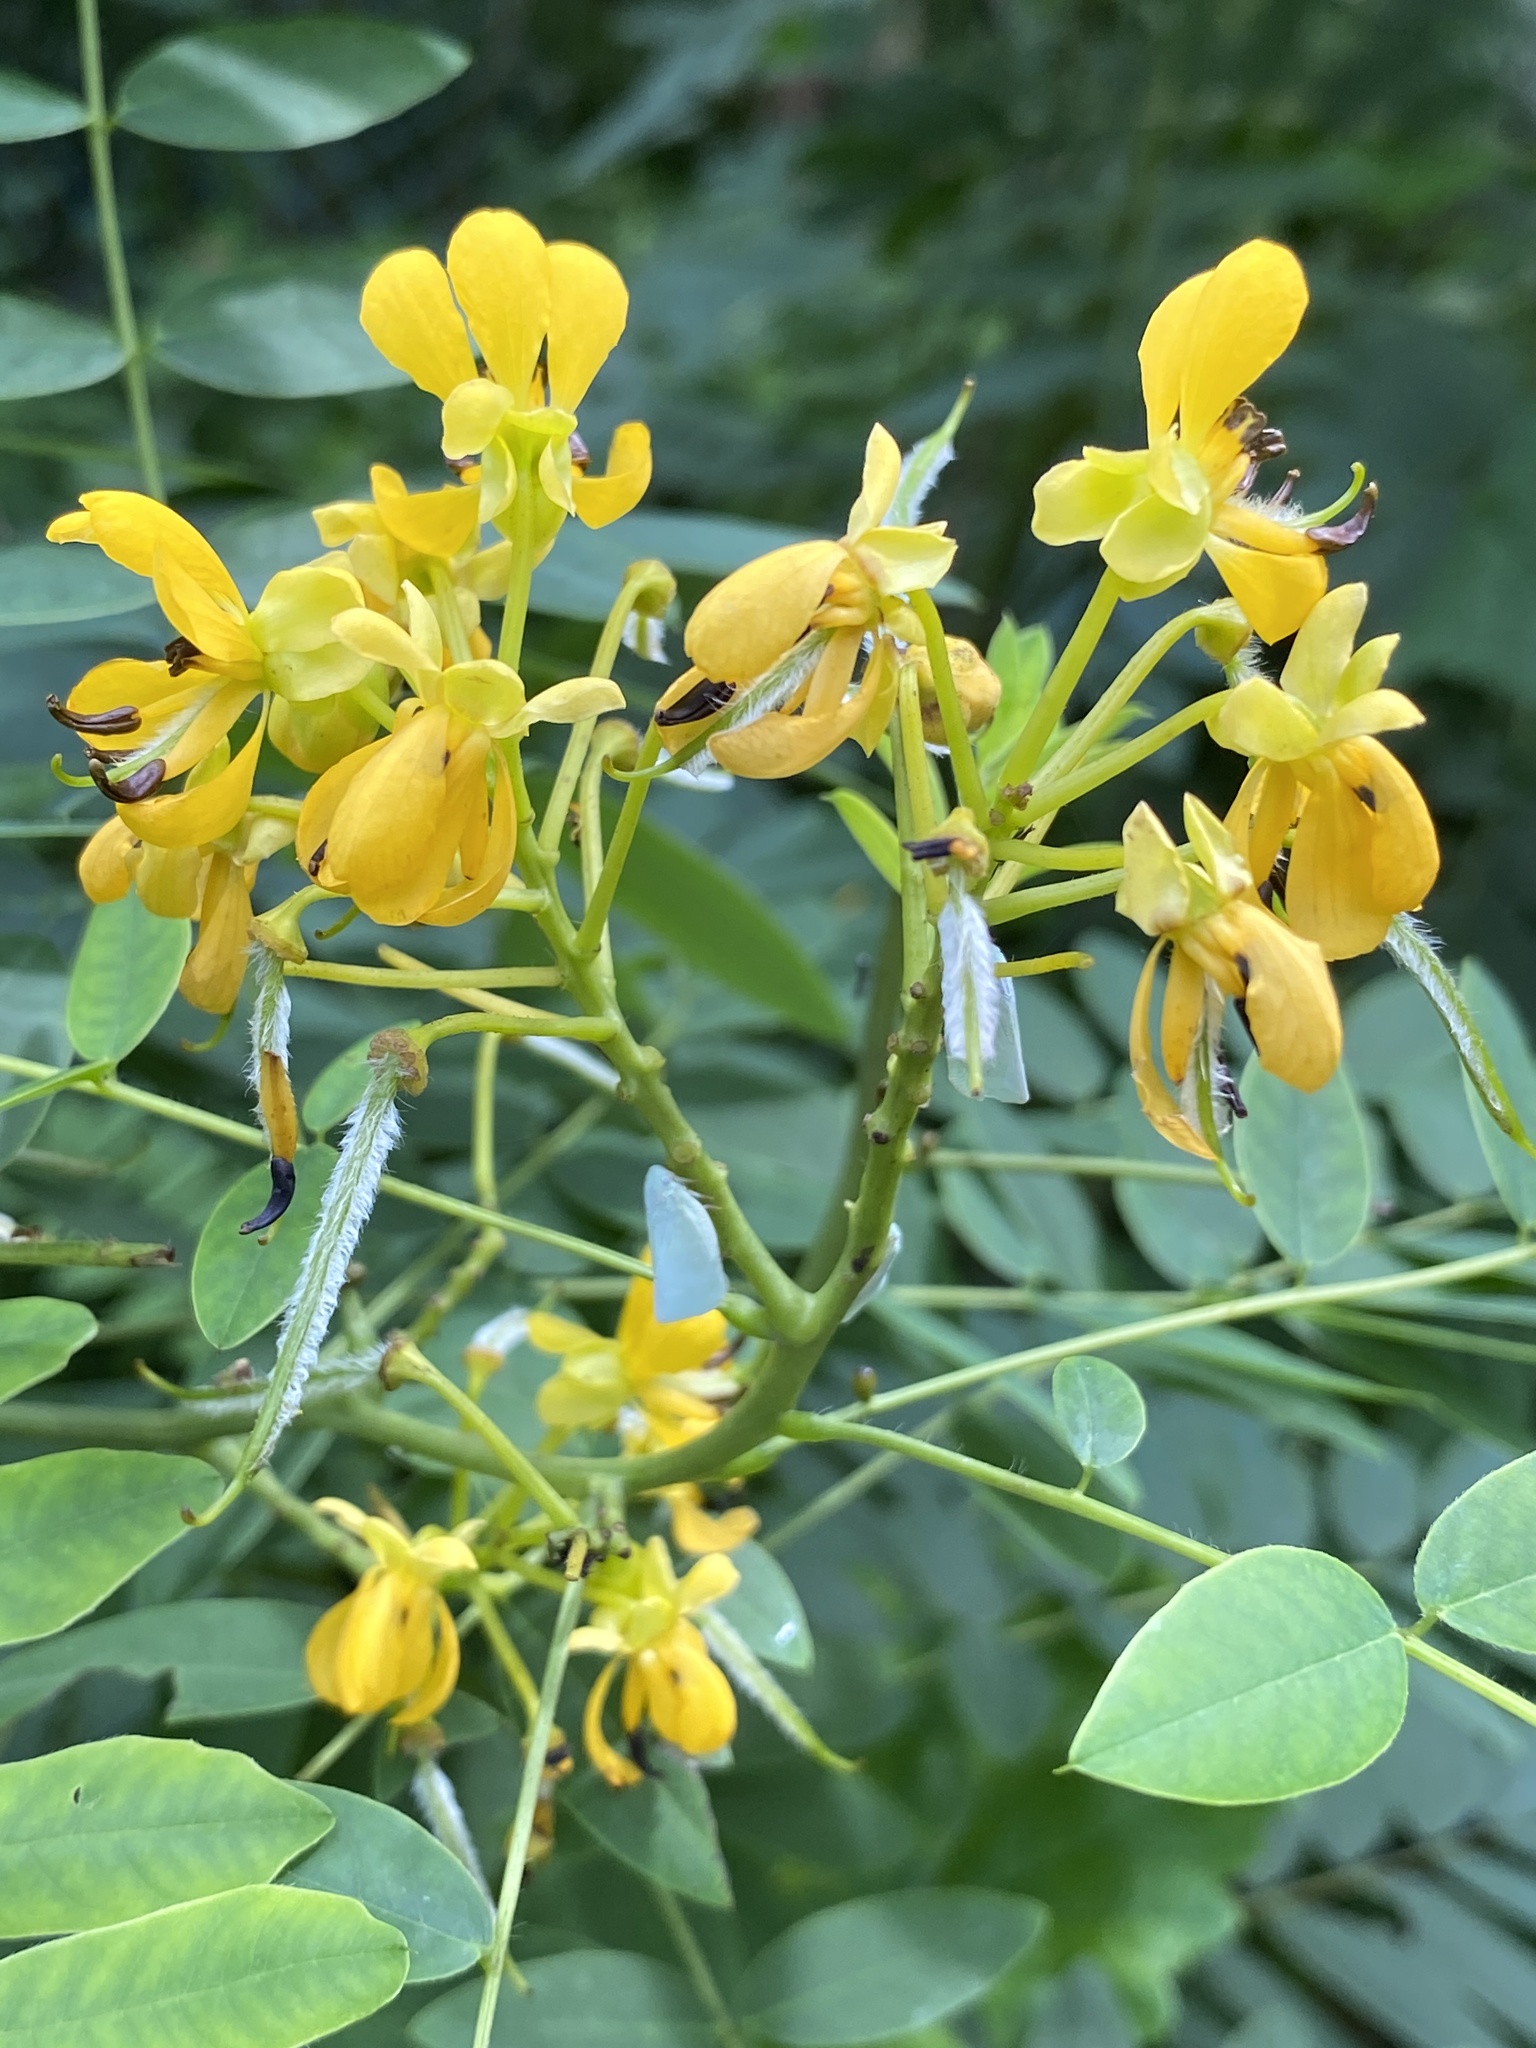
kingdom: Plantae
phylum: Tracheophyta
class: Magnoliopsida
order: Fabales
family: Fabaceae
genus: Senna
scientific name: Senna hebecarpa
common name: Wild senna
